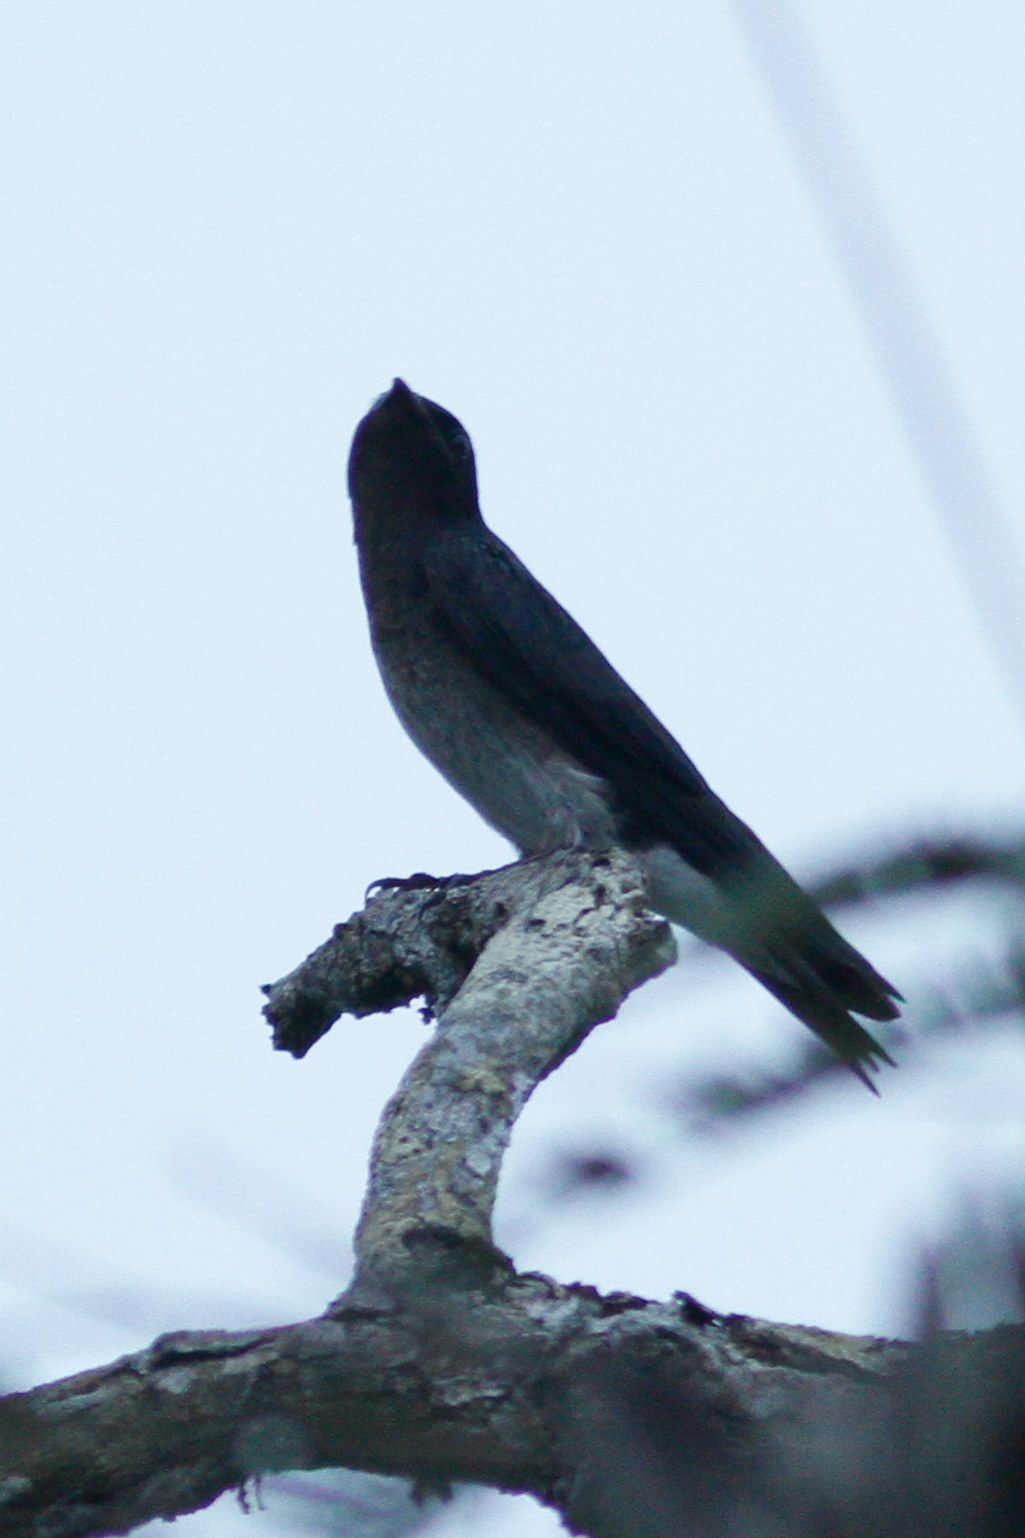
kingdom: Animalia
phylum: Chordata
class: Aves
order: Passeriformes
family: Hirundinidae
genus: Progne
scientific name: Progne chalybea
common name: Grey-breasted martin
